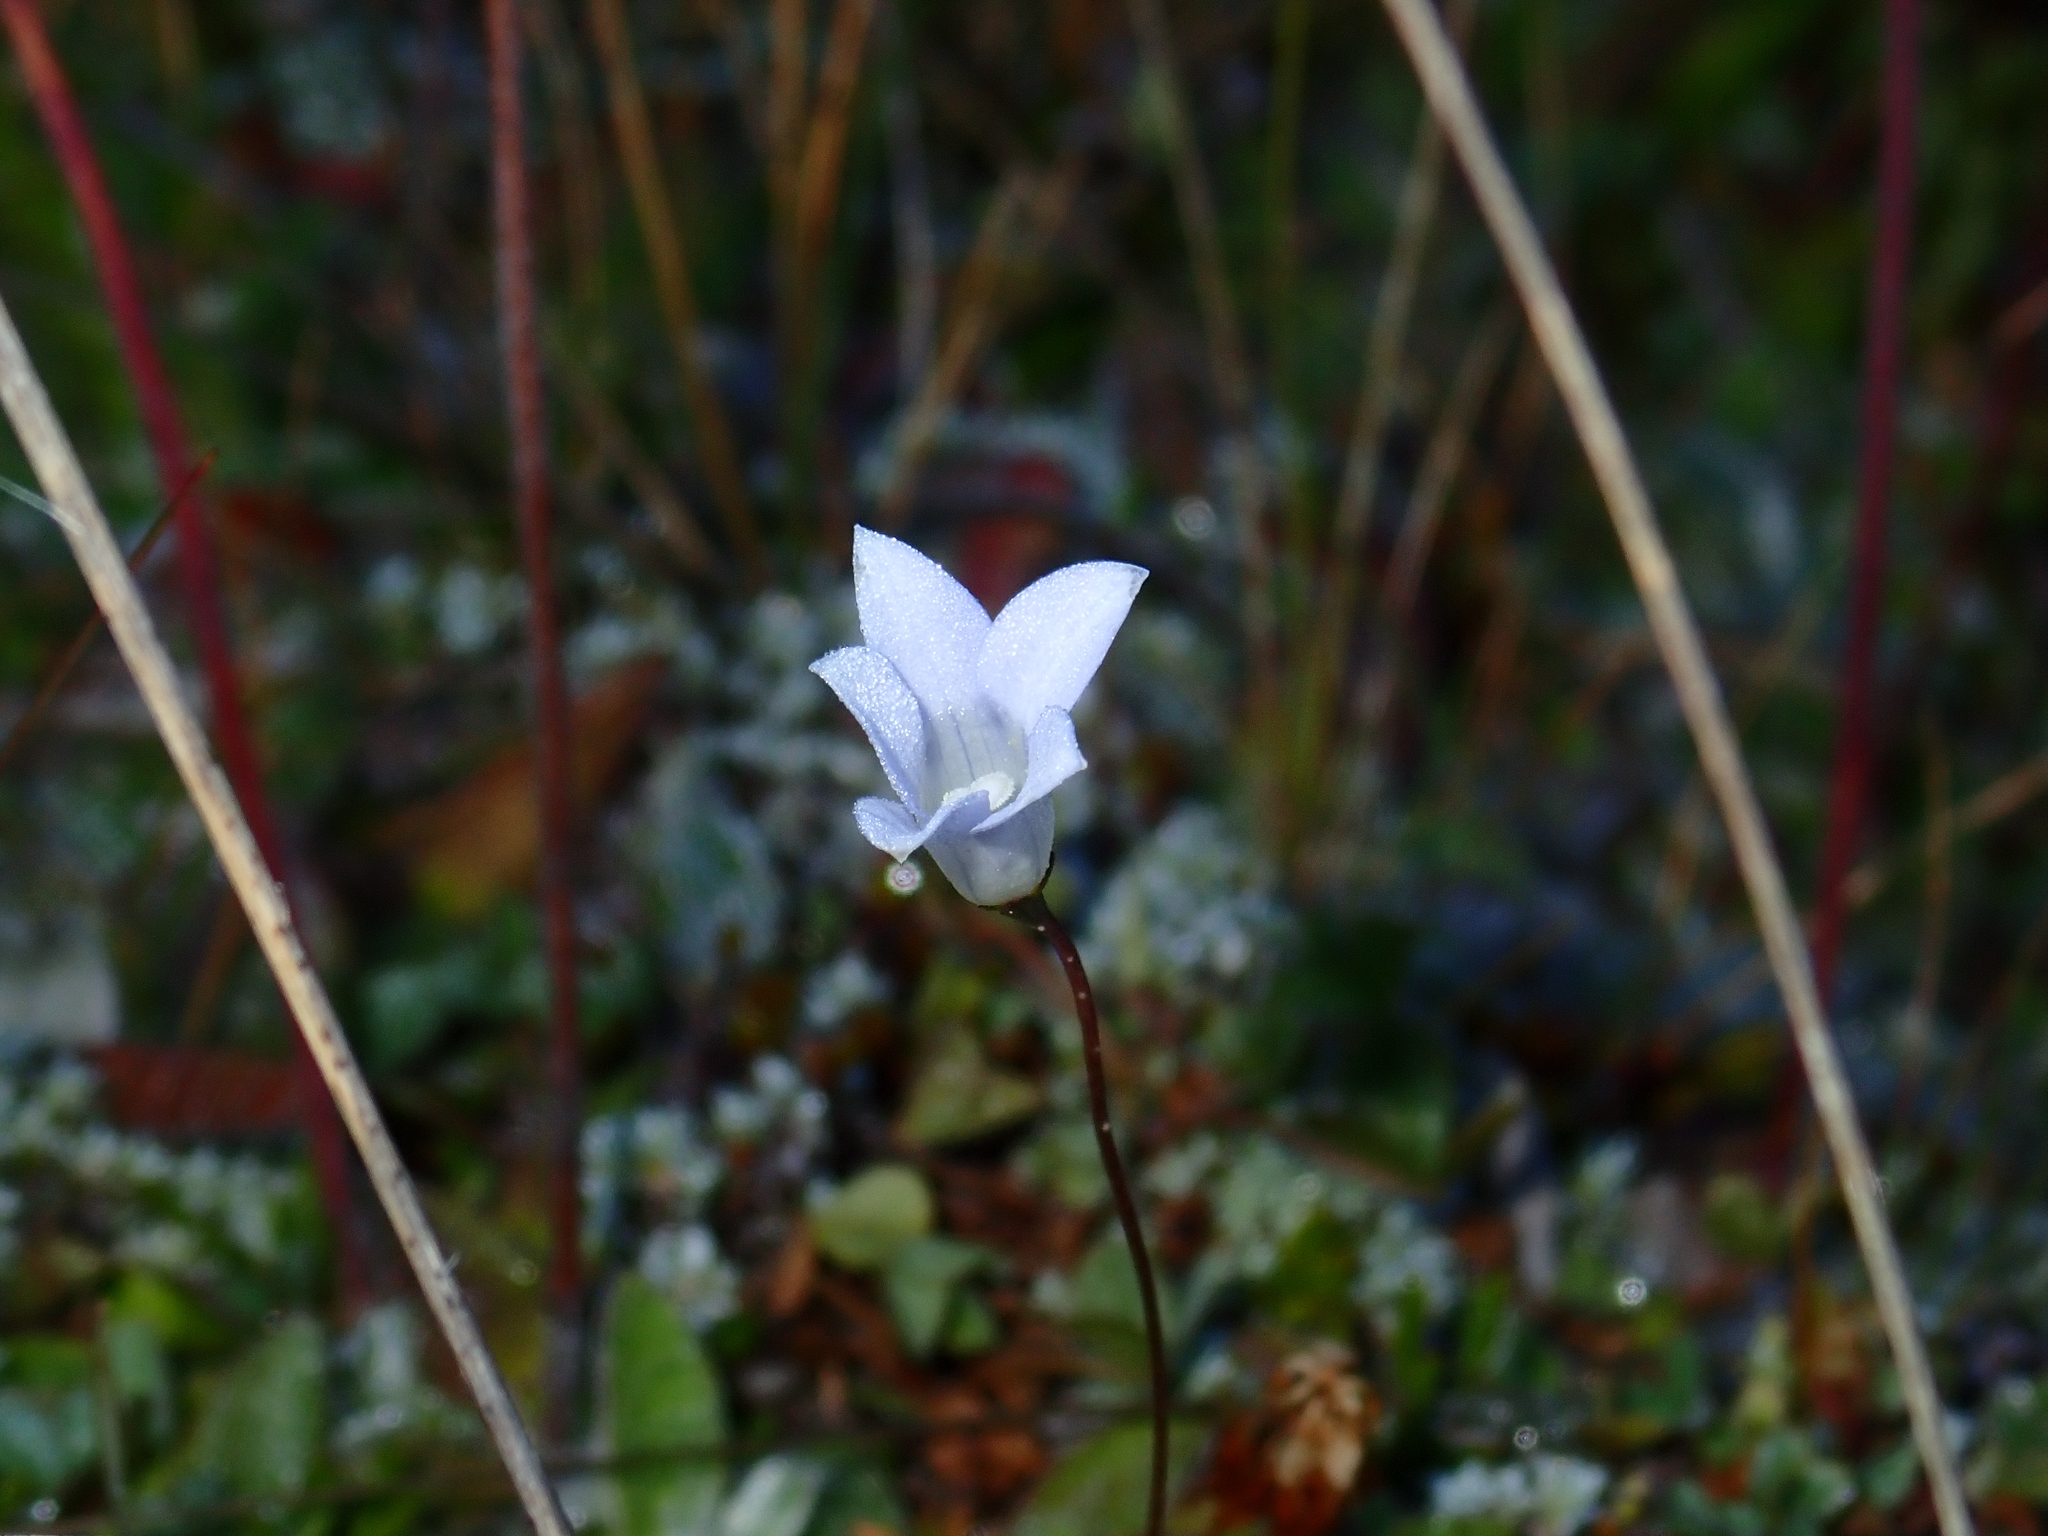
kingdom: Plantae
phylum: Tracheophyta
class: Magnoliopsida
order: Asterales
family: Campanulaceae
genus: Wahlenbergia
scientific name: Wahlenbergia albomarginata
